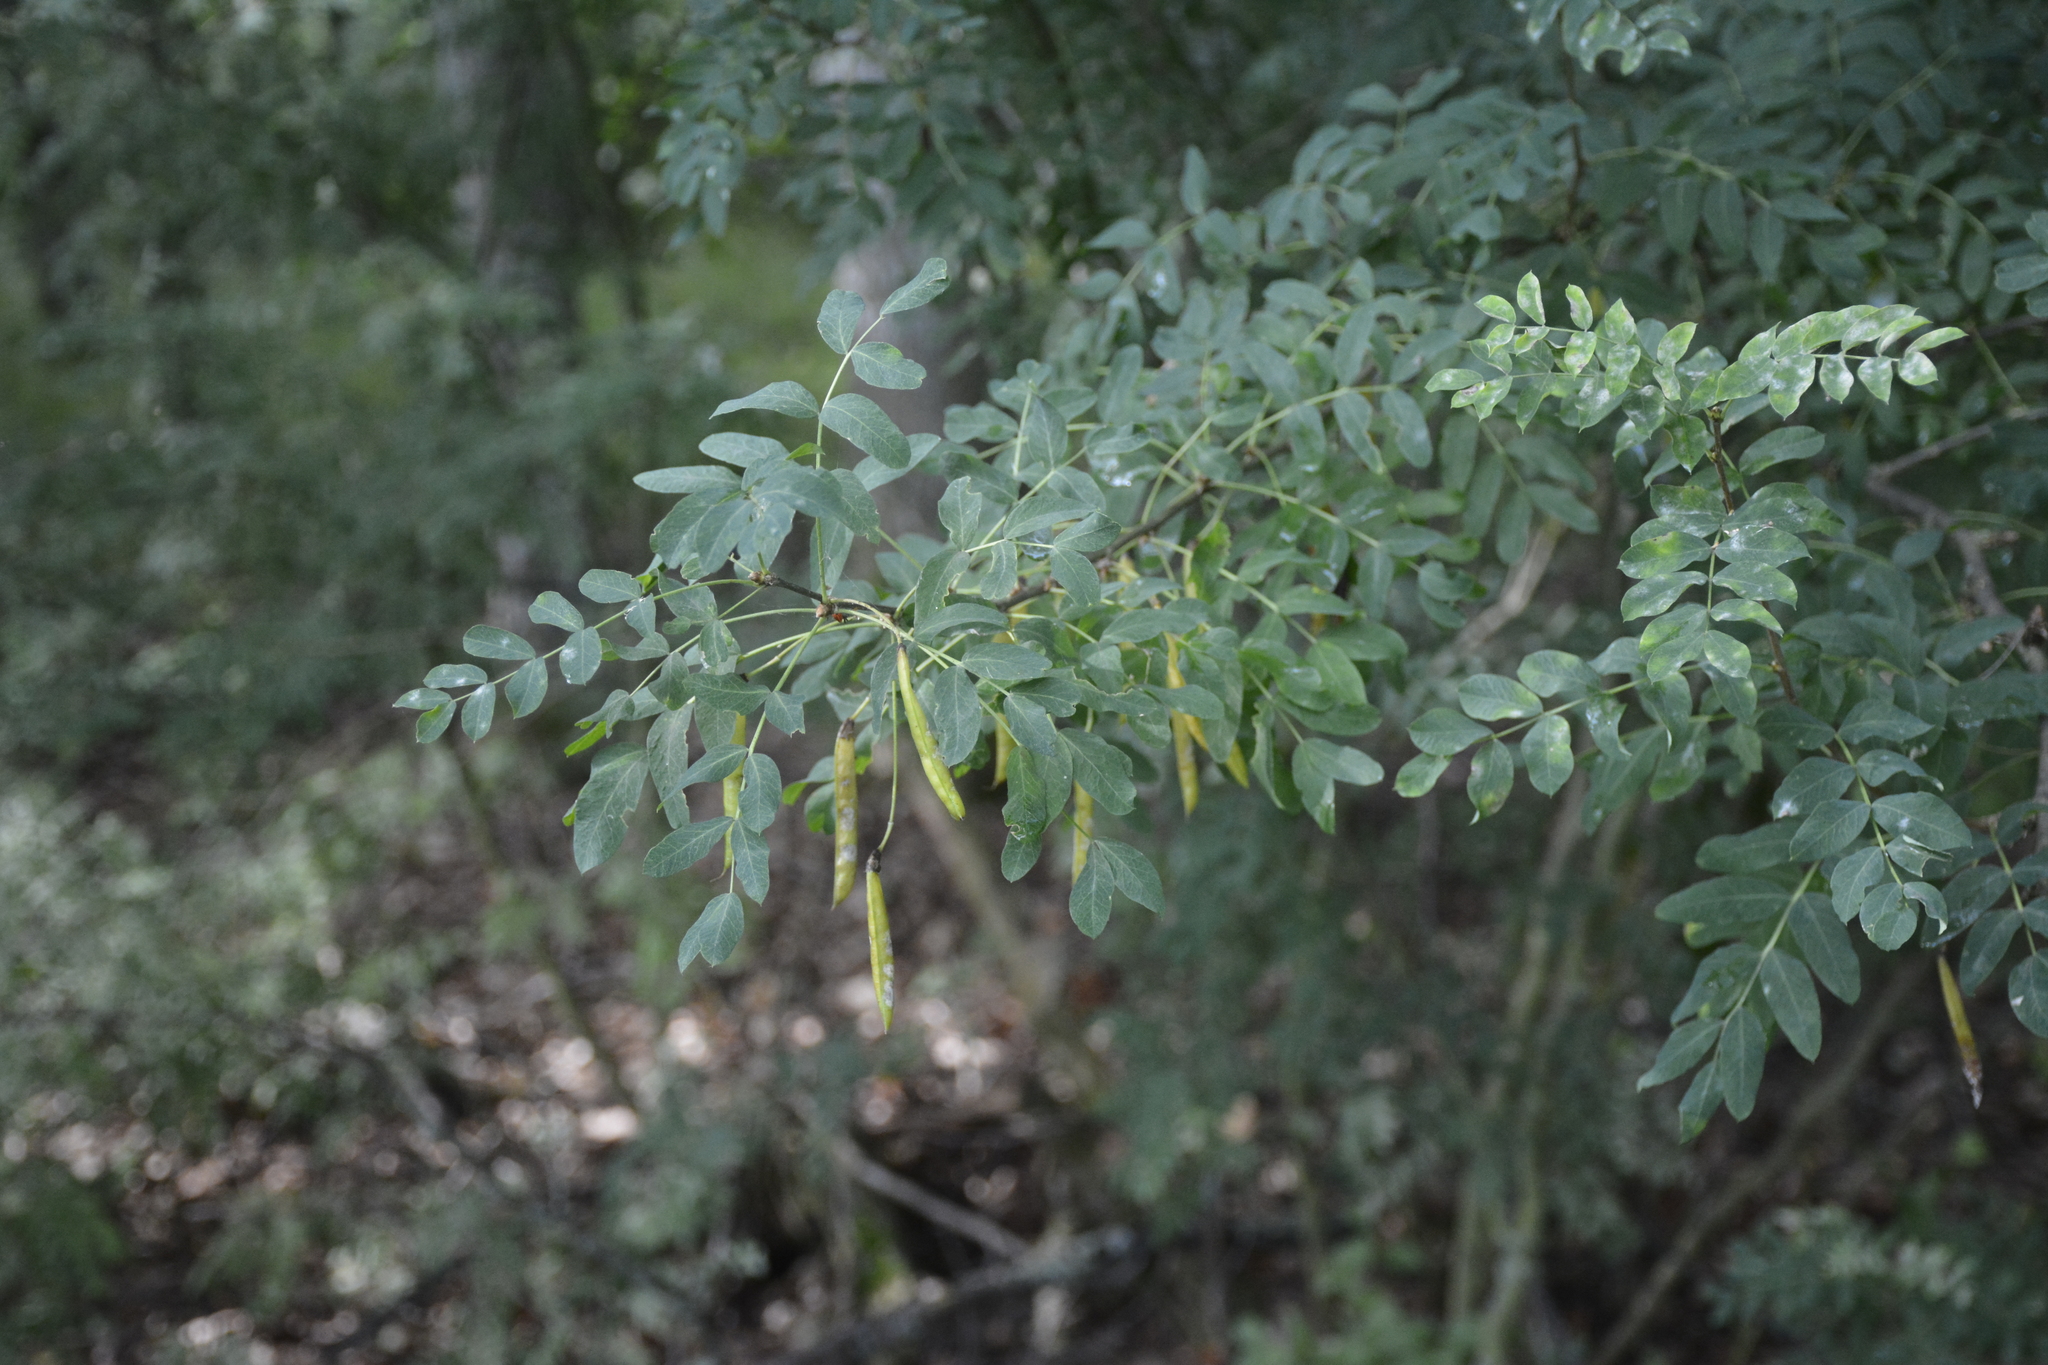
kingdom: Plantae
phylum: Tracheophyta
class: Magnoliopsida
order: Fabales
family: Fabaceae
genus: Caragana
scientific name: Caragana arborescens
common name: Siberian peashrub
